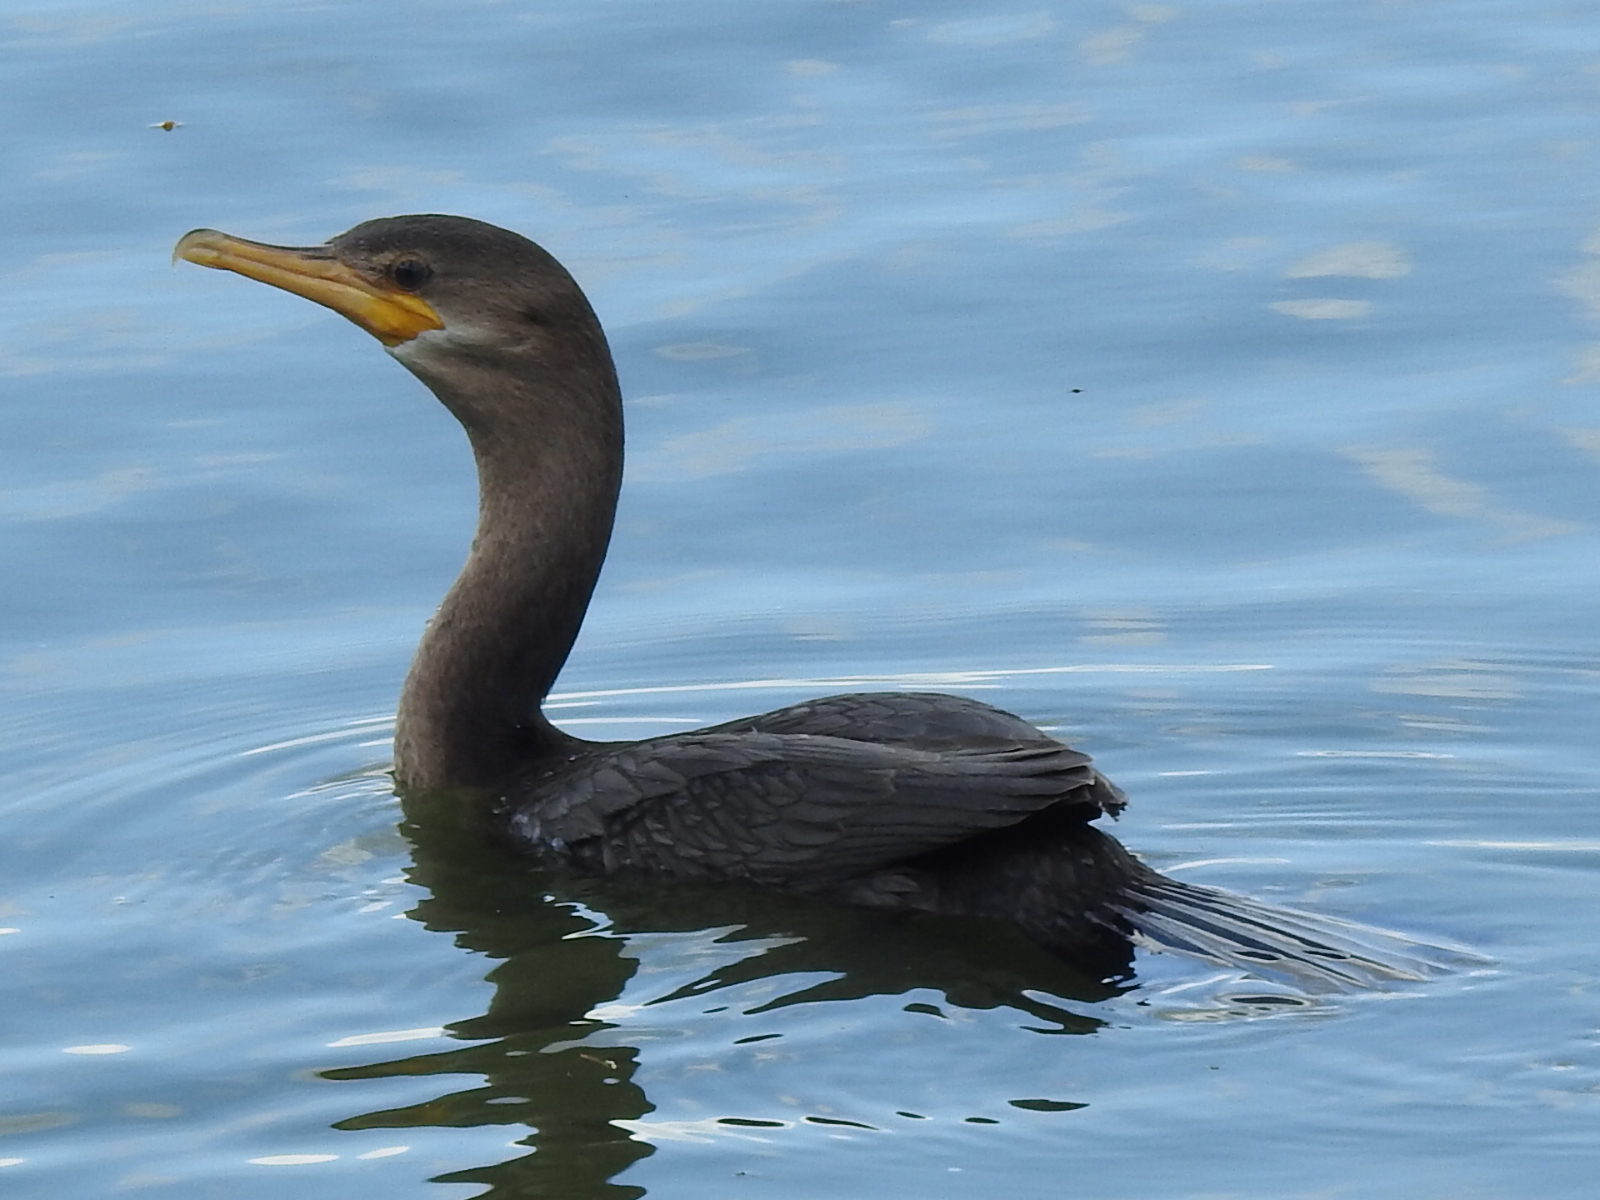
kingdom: Animalia
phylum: Chordata
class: Aves
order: Suliformes
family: Phalacrocoracidae
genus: Phalacrocorax
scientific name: Phalacrocorax brasilianus
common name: Neotropic cormorant
